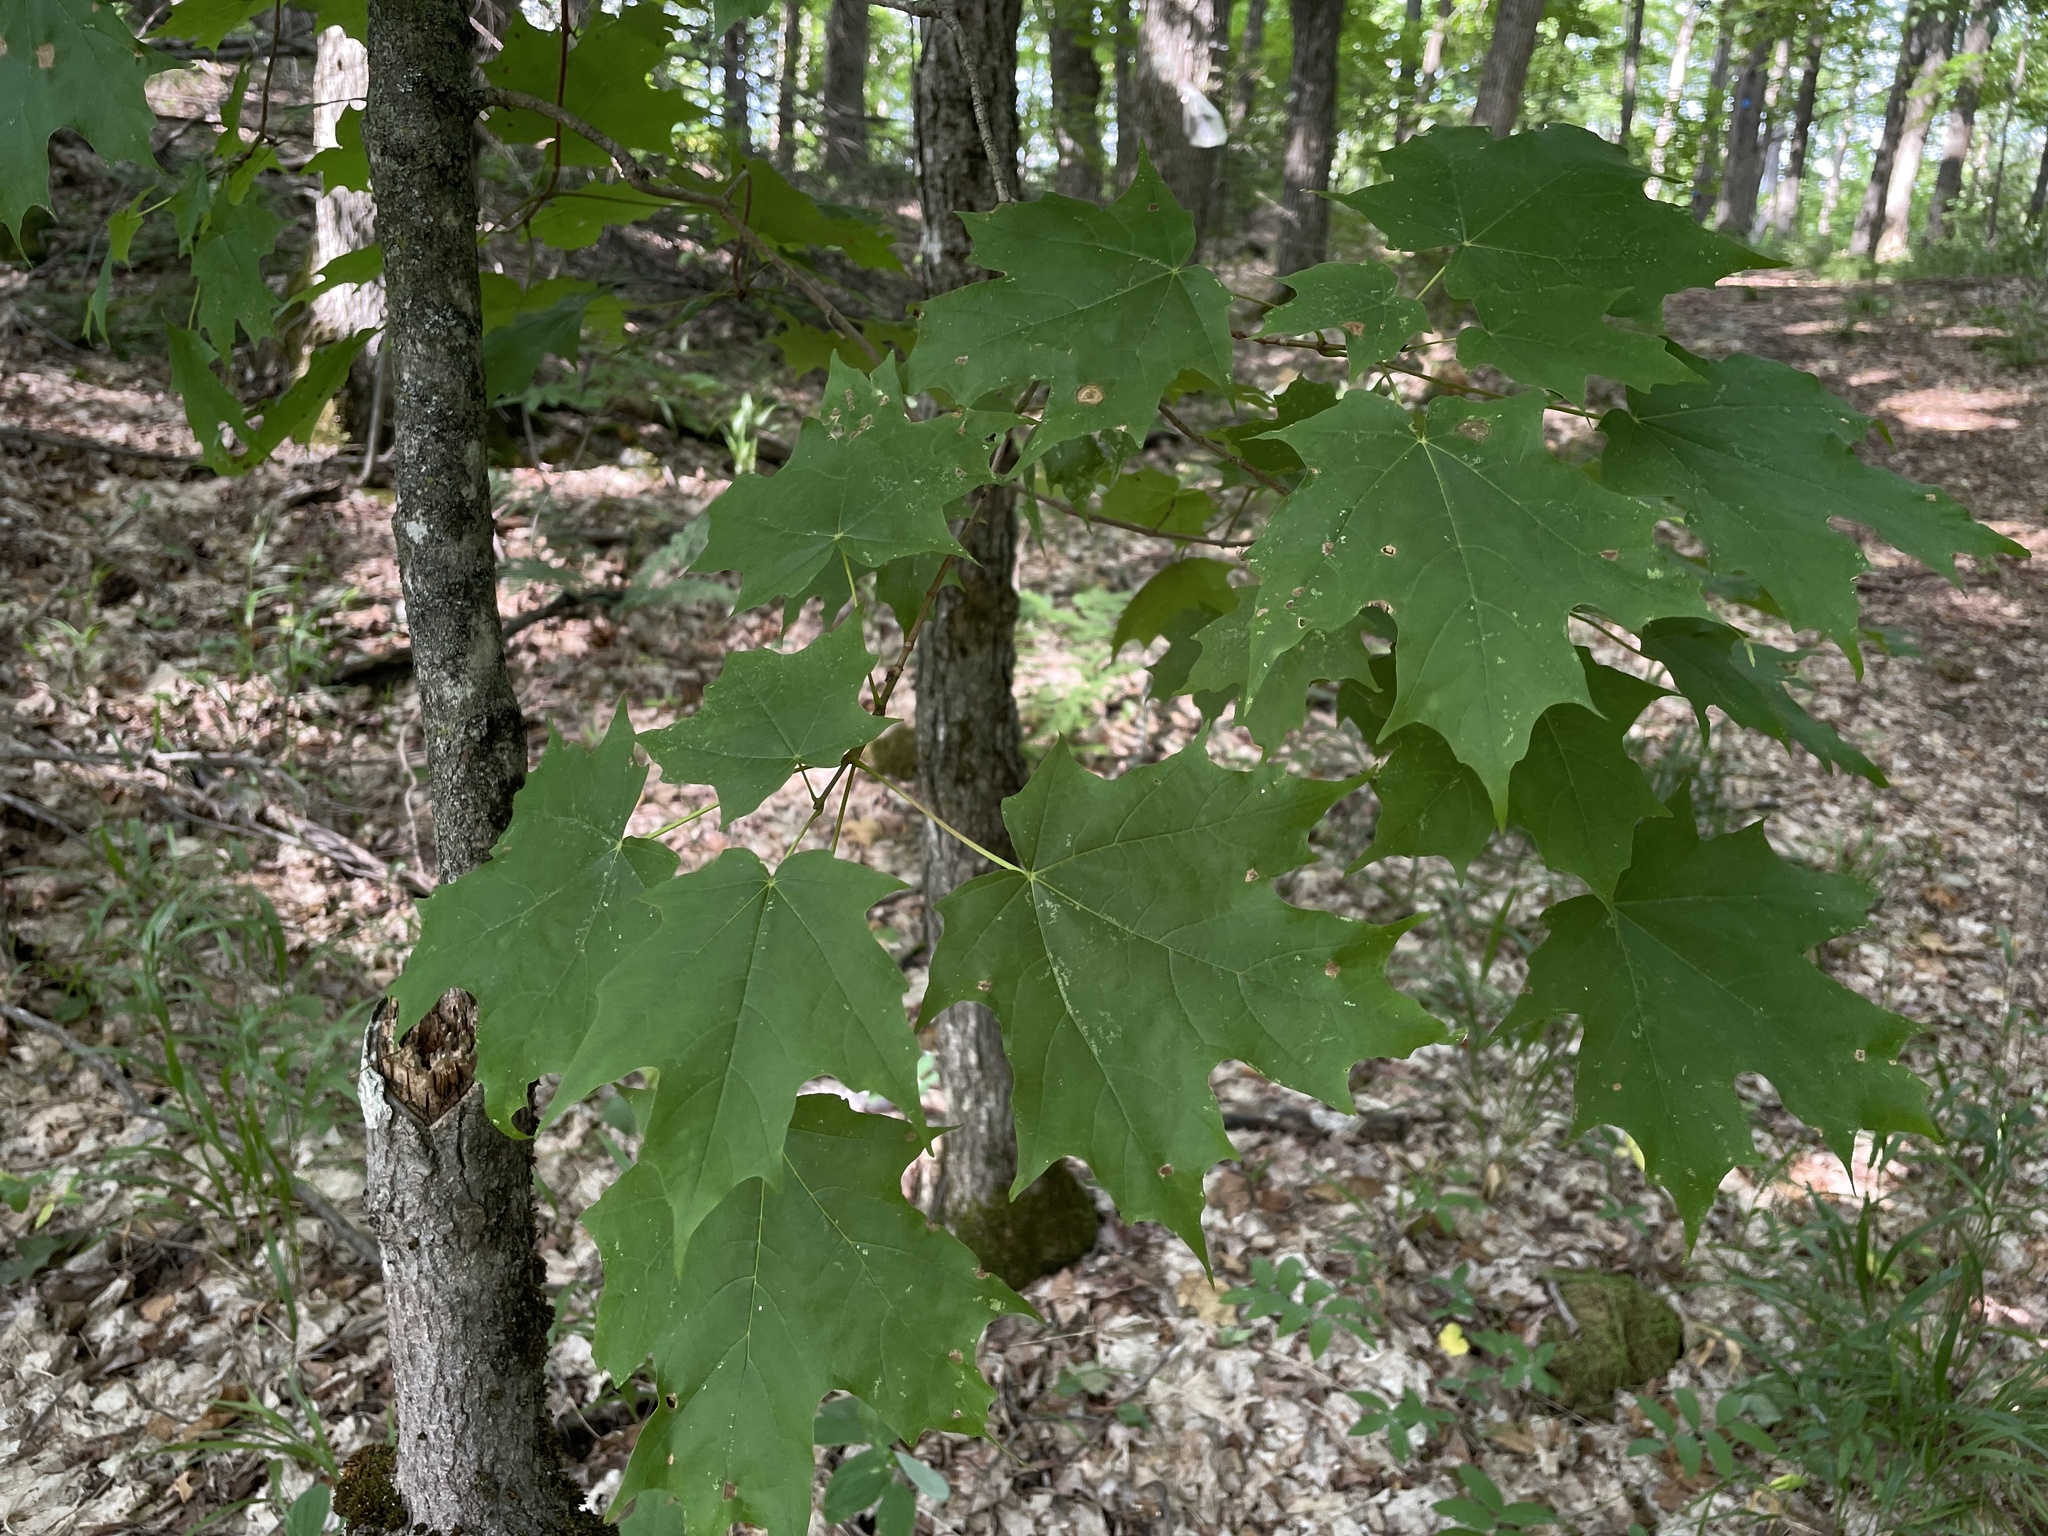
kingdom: Plantae
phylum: Tracheophyta
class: Magnoliopsida
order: Sapindales
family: Sapindaceae
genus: Acer
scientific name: Acer saccharum
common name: Sugar maple
